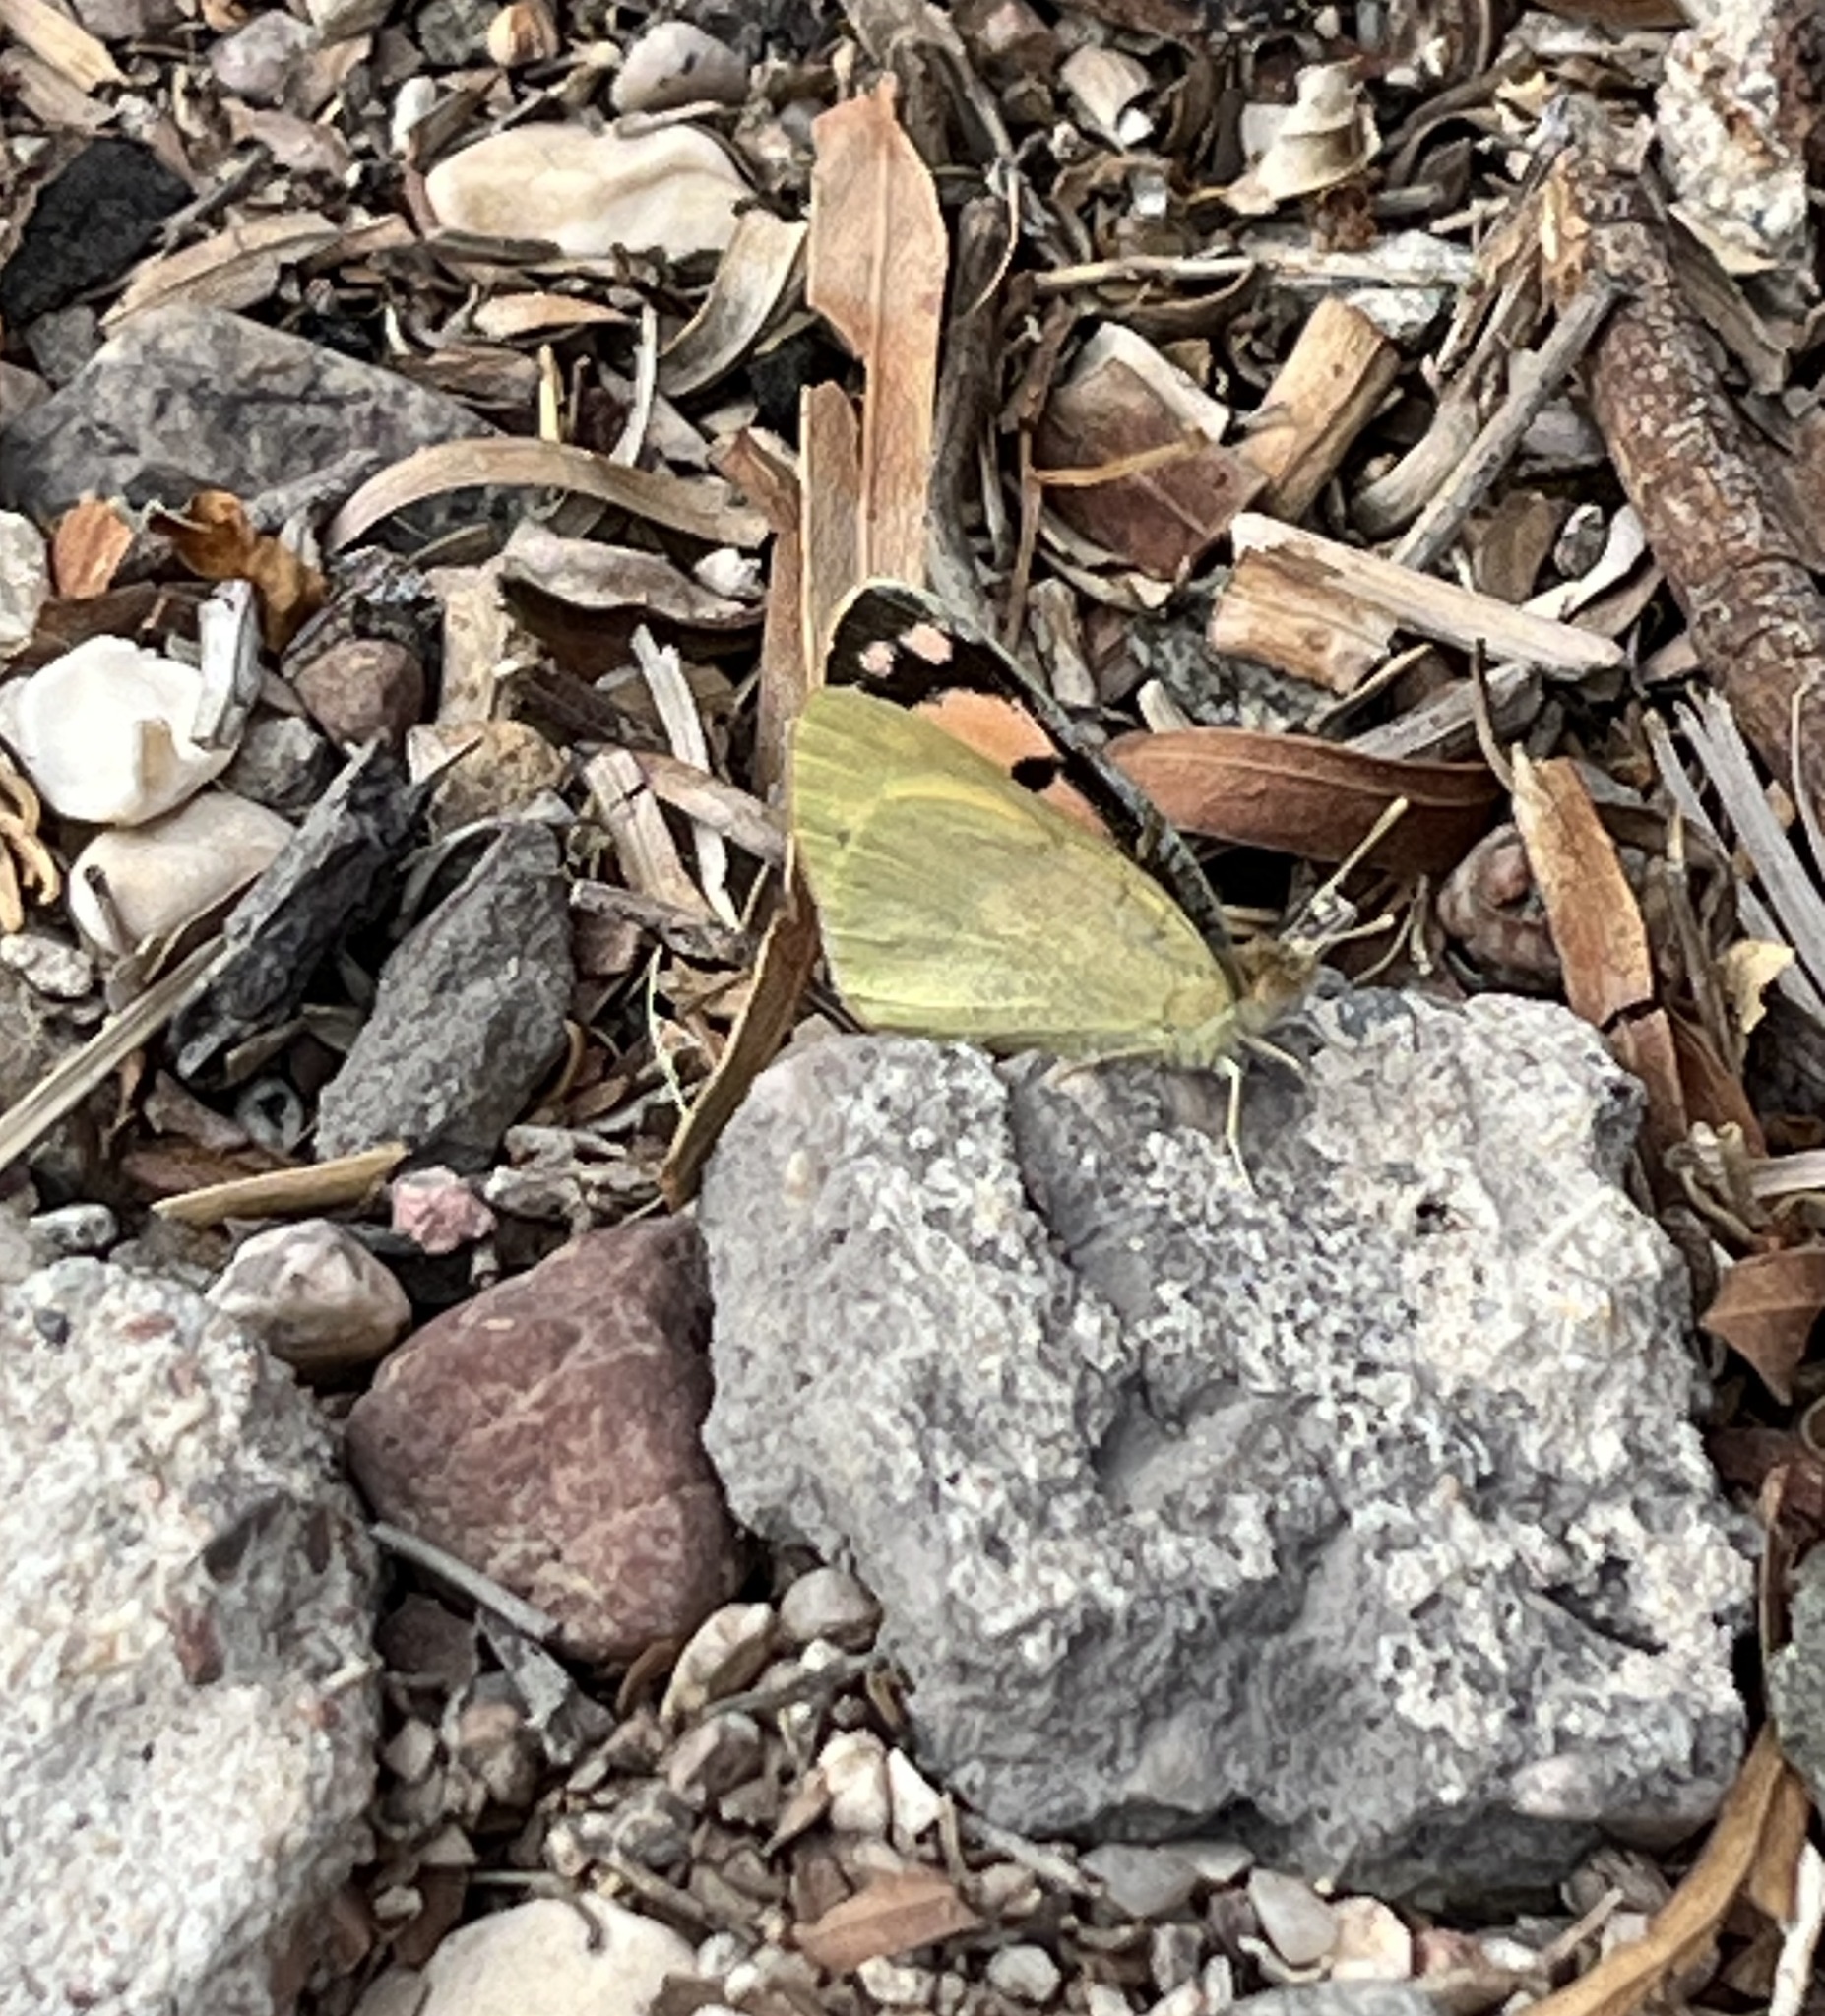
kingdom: Animalia
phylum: Arthropoda
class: Insecta
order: Lepidoptera
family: Pieridae
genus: Colotis
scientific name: Colotis phisadia
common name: Blue spotted arab
